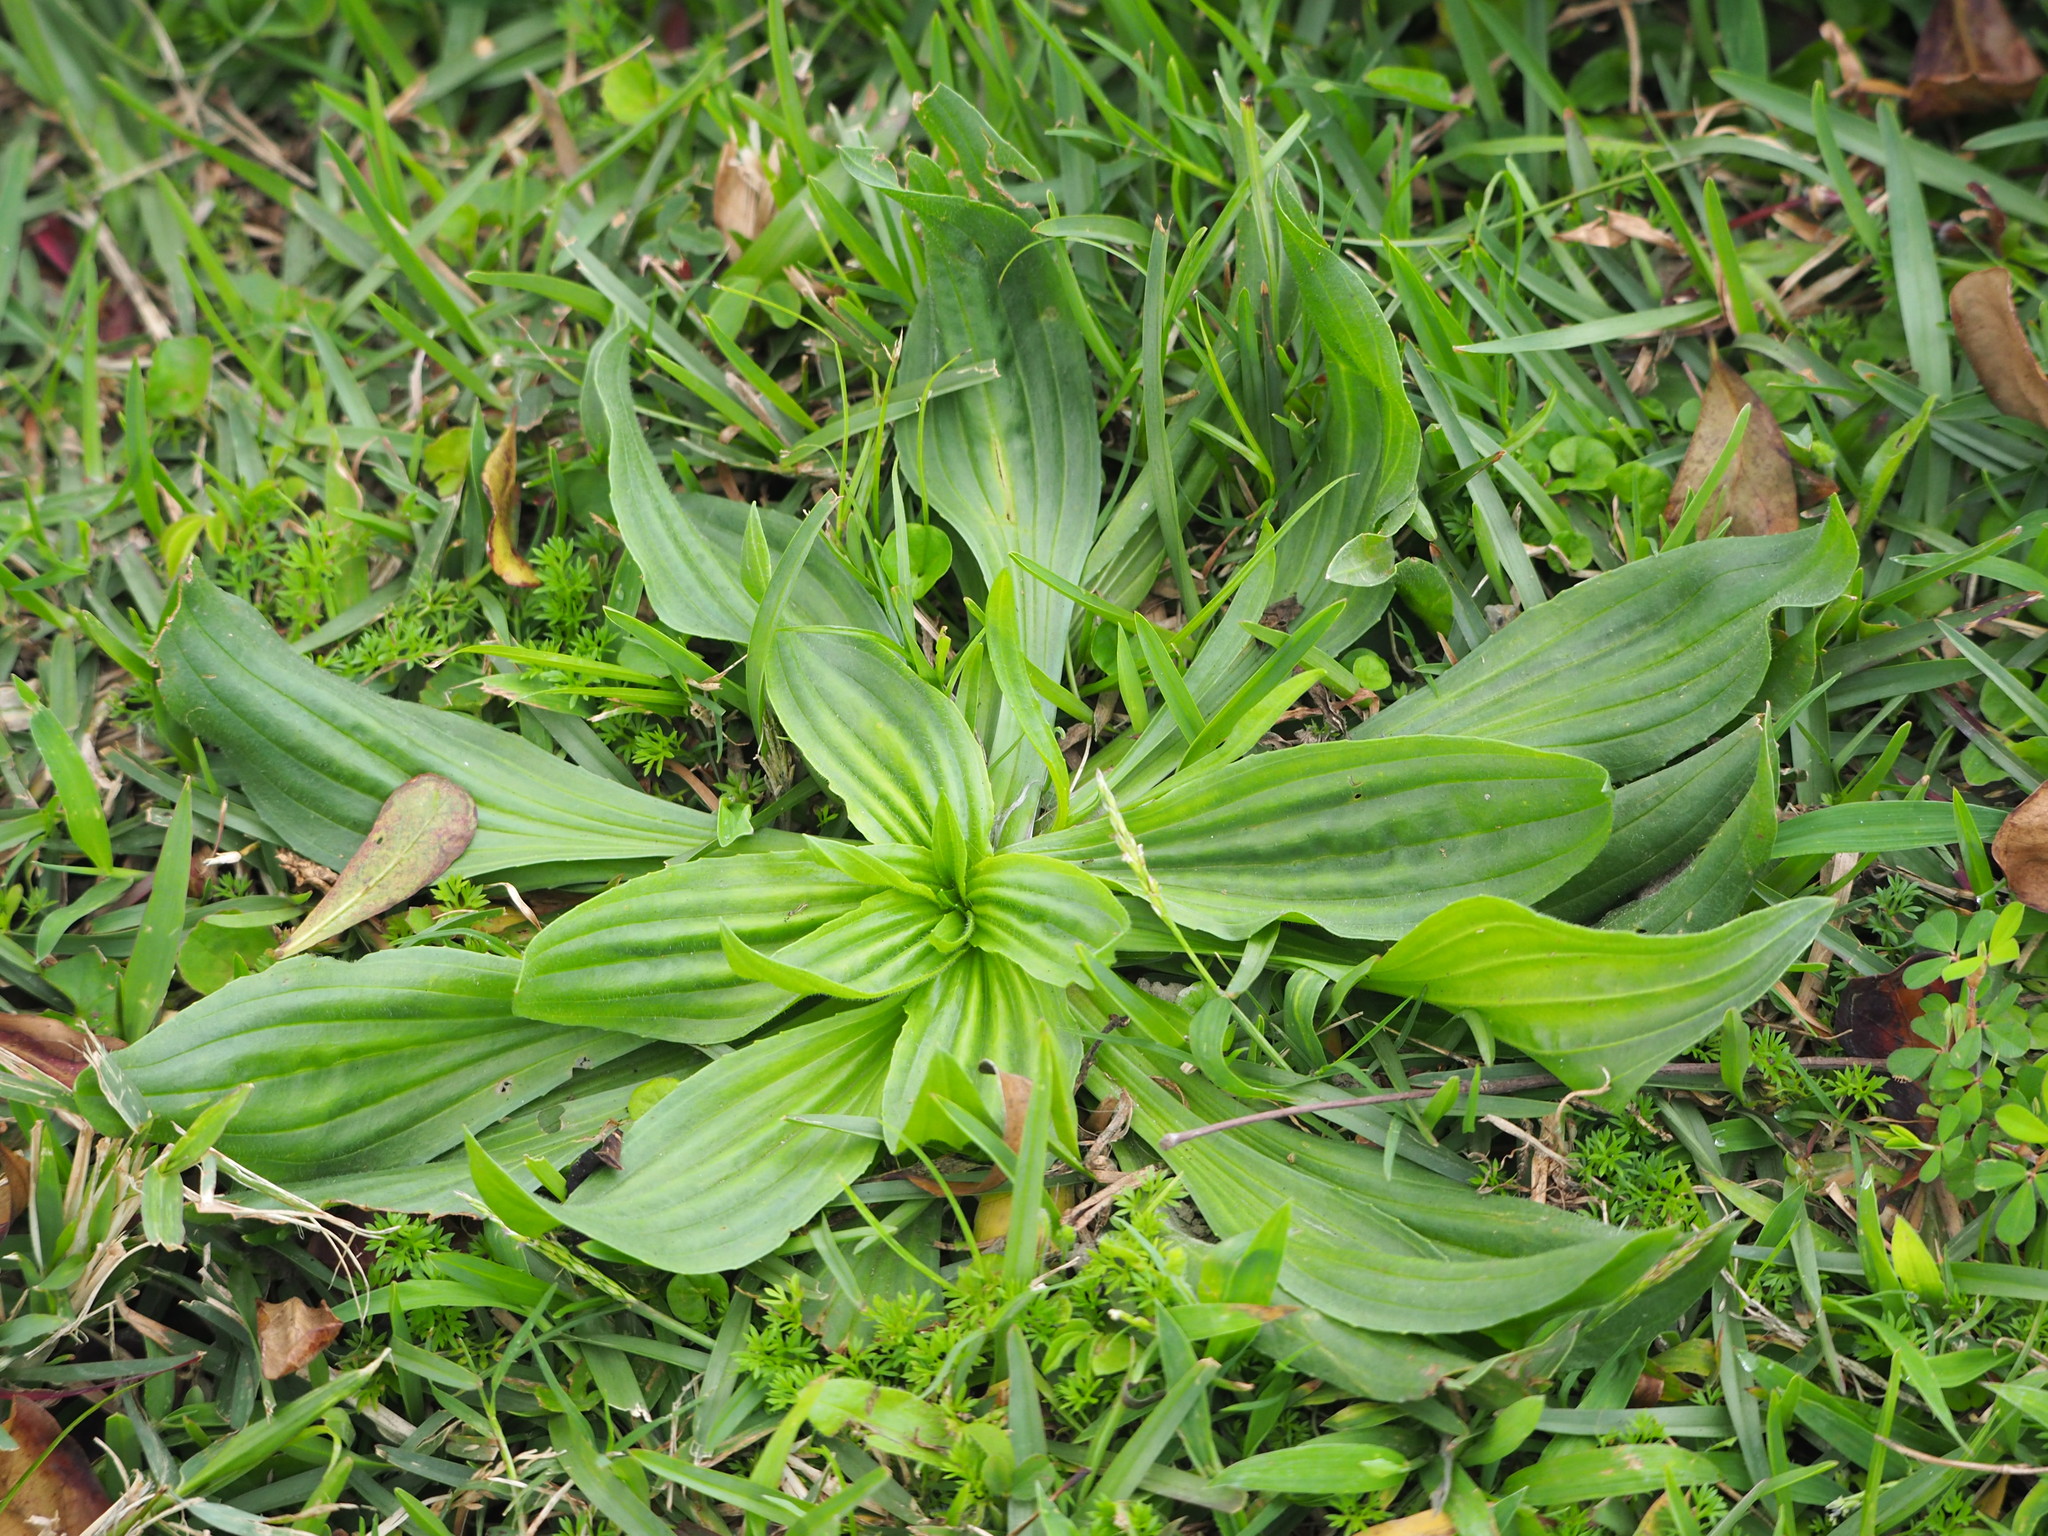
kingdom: Plantae
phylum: Tracheophyta
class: Magnoliopsida
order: Lamiales
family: Plantaginaceae
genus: Plantago
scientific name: Plantago lanceolata
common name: Ribwort plantain
